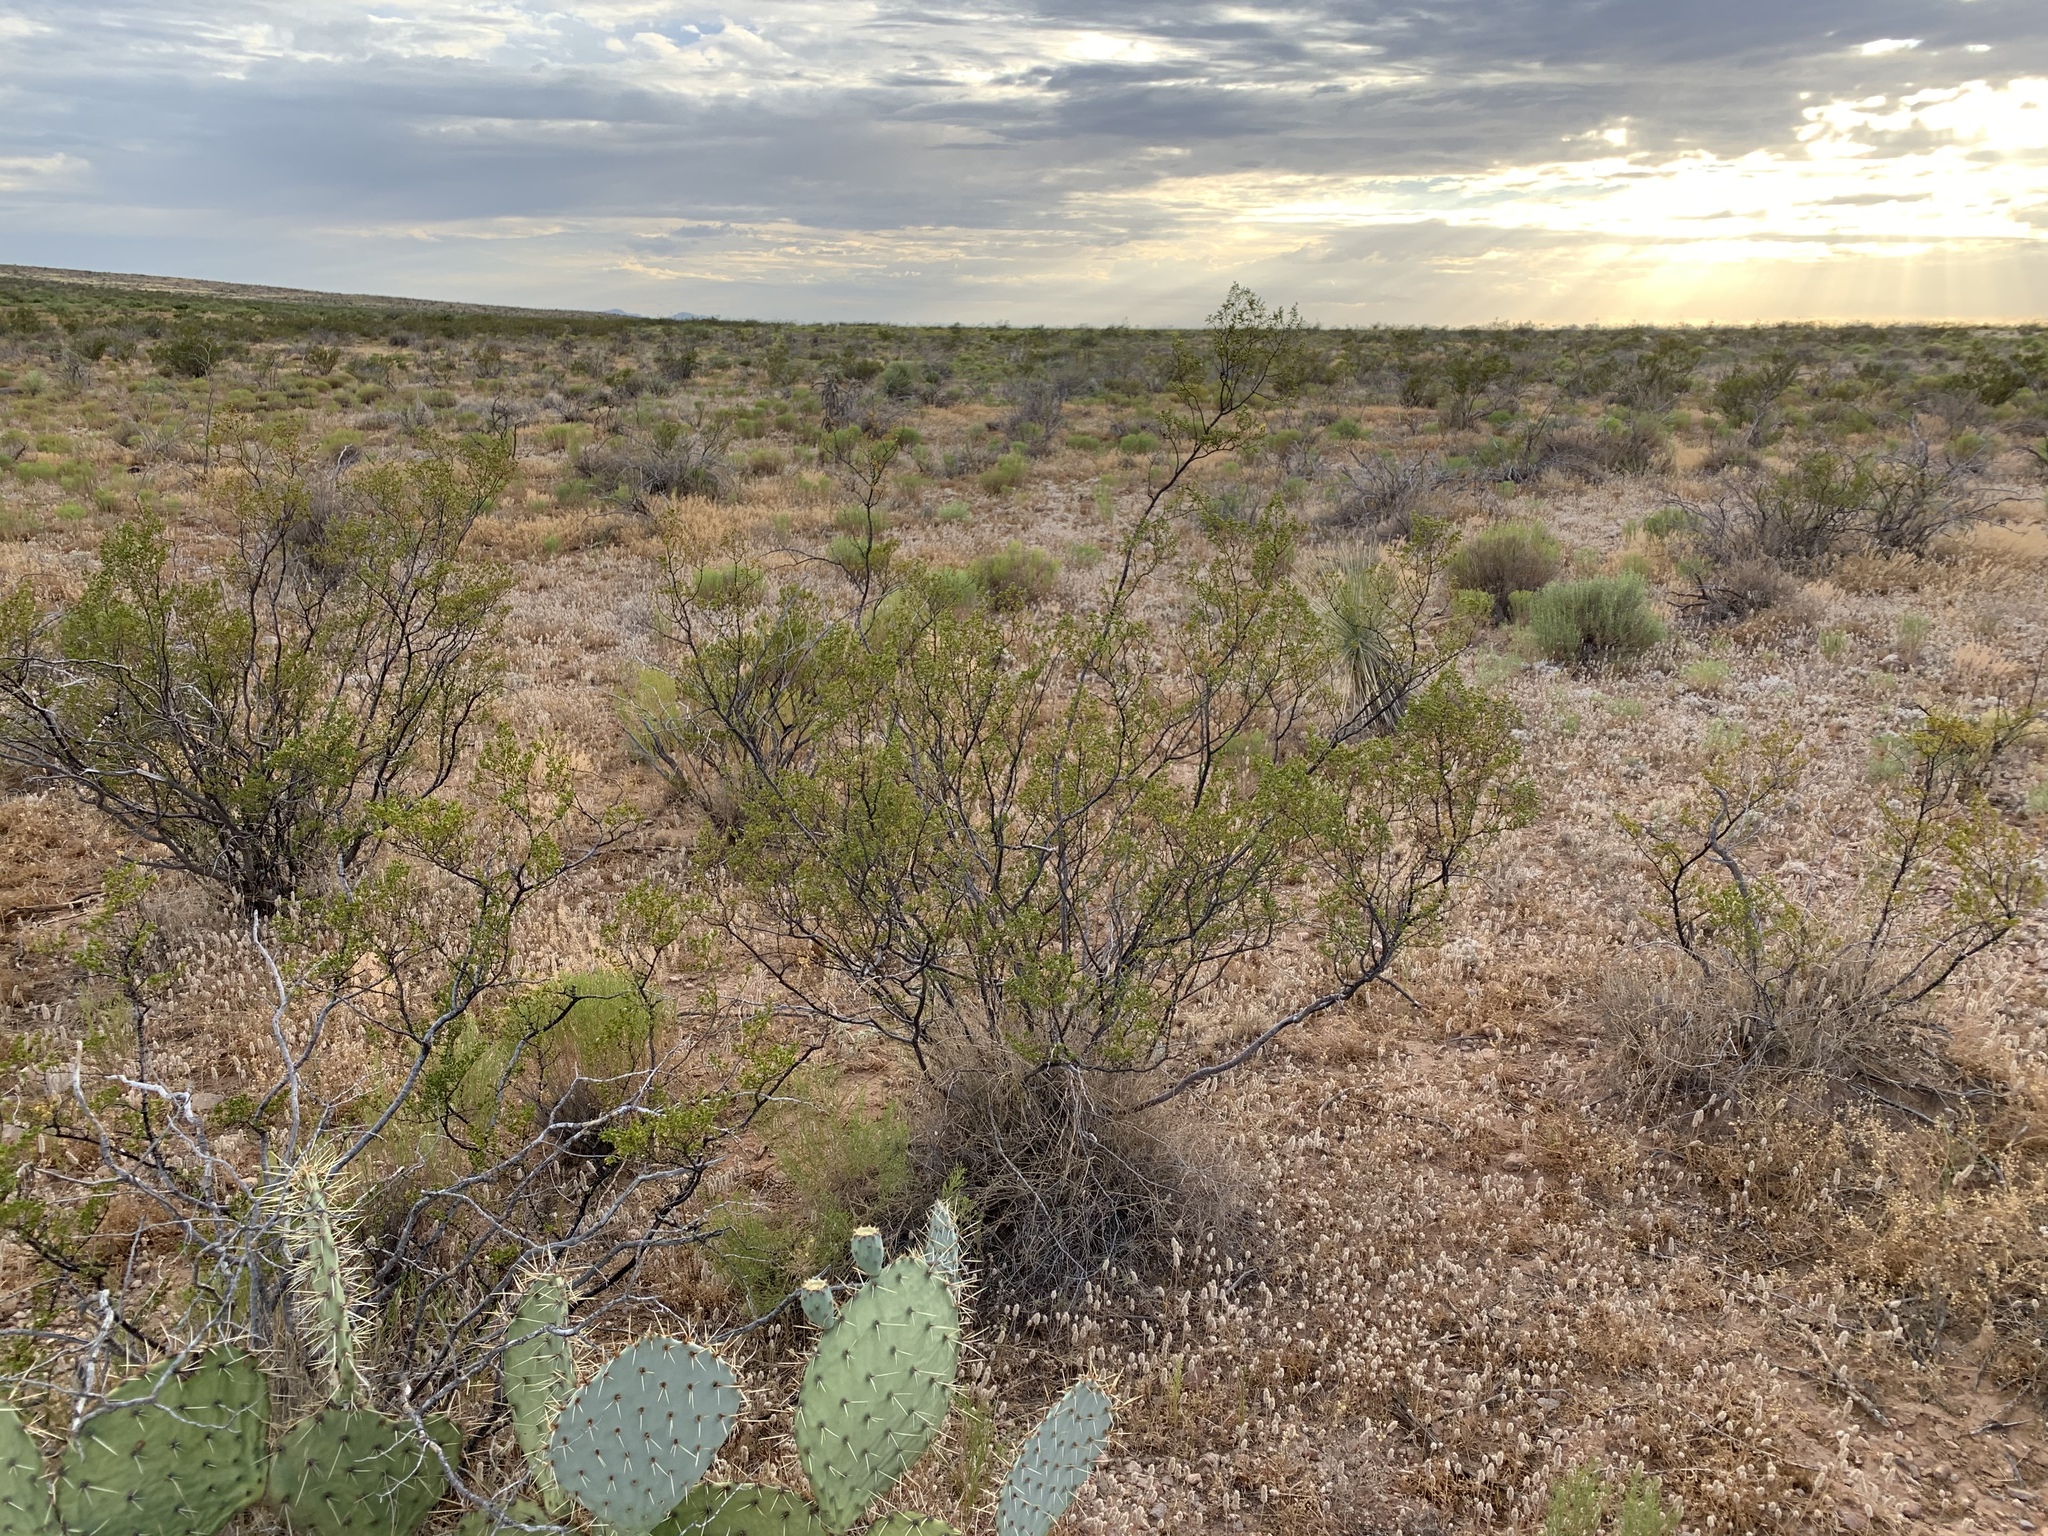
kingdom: Plantae
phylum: Tracheophyta
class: Magnoliopsida
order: Zygophyllales
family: Zygophyllaceae
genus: Larrea
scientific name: Larrea tridentata
